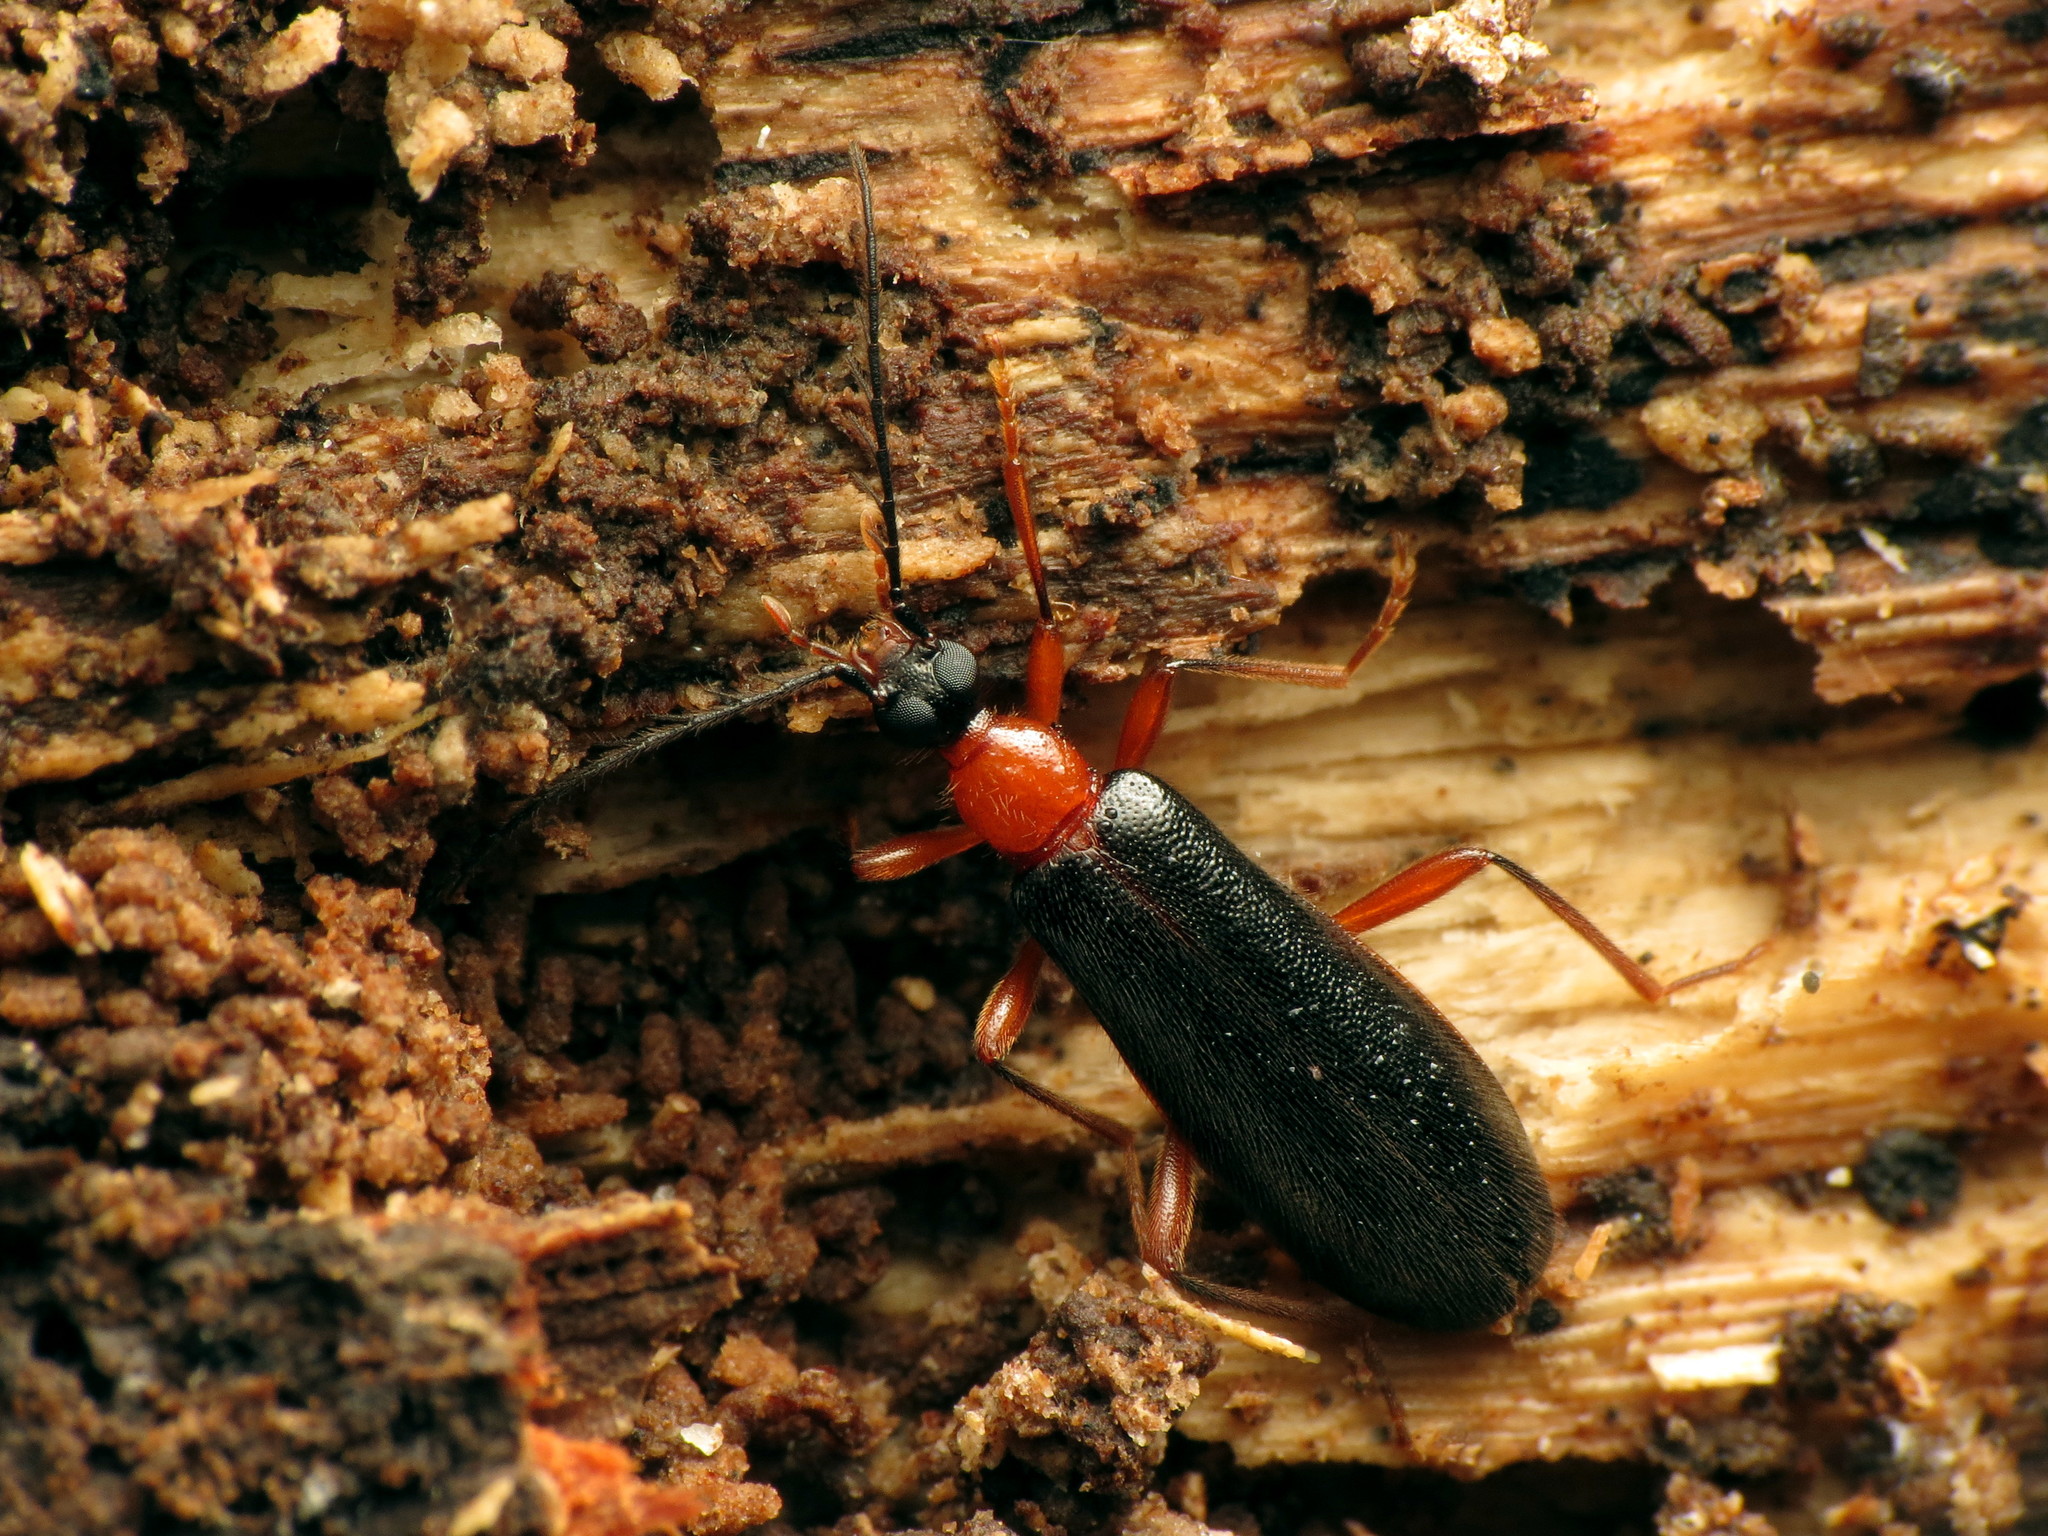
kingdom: Animalia
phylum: Arthropoda
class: Insecta
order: Coleoptera
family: Pyrochroidae
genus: Dendroides
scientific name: Dendroides canadensis
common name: Canada fire-colored beetle
